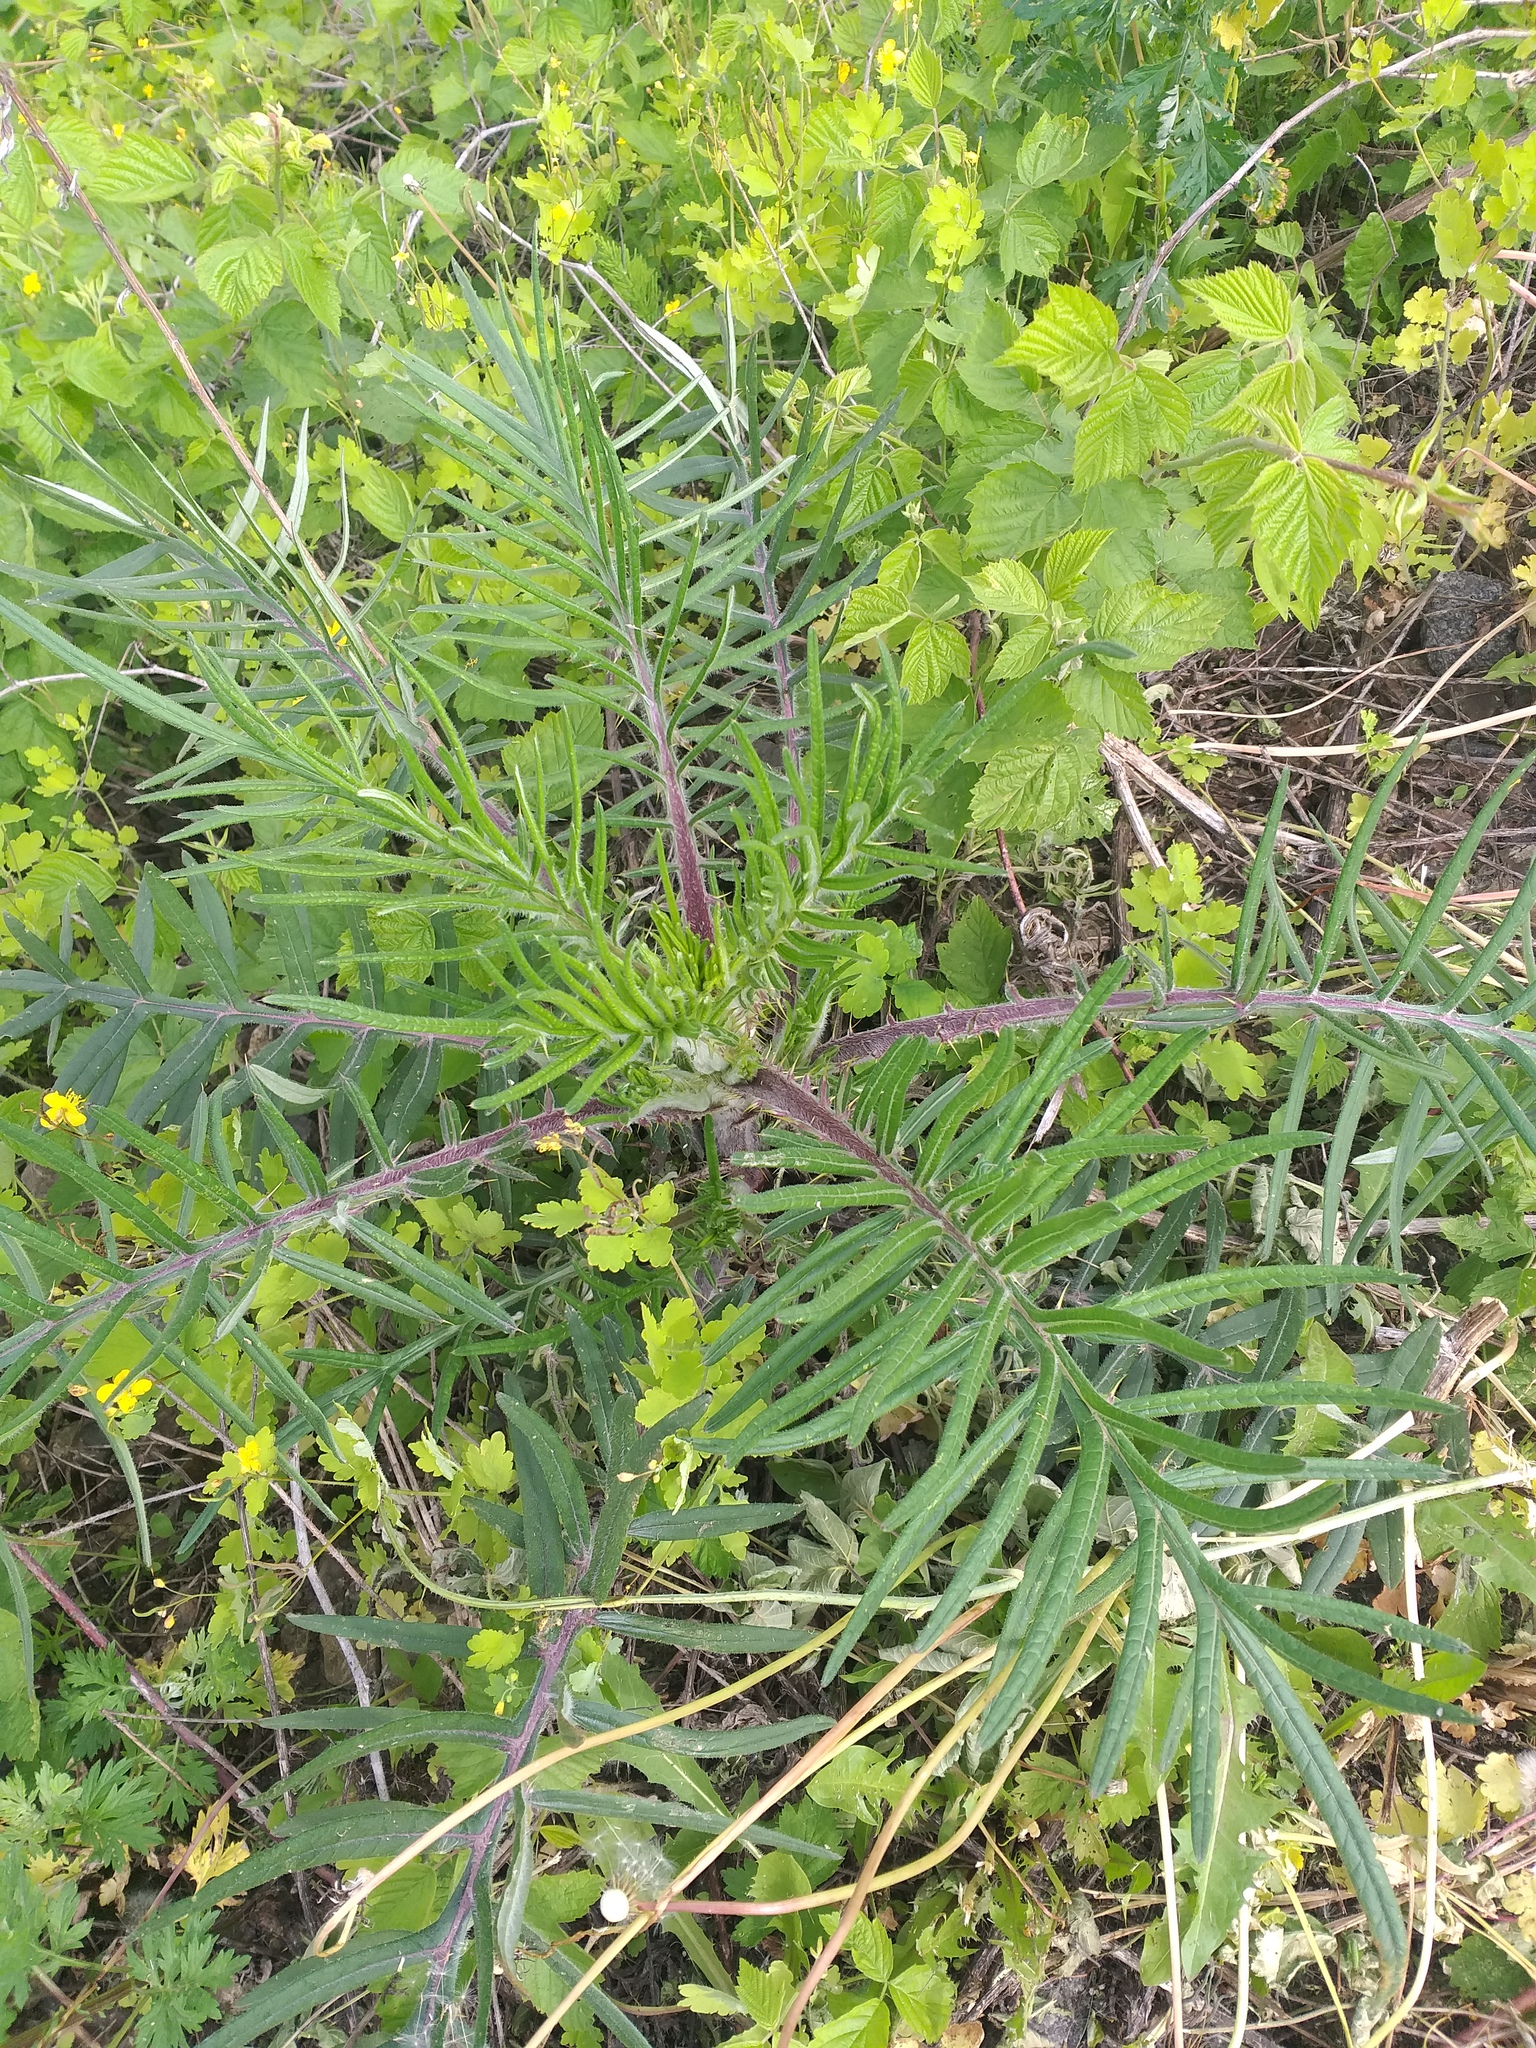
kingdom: Plantae
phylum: Tracheophyta
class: Magnoliopsida
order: Asterales
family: Asteraceae
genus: Lophiolepis
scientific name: Lophiolepis decussata
